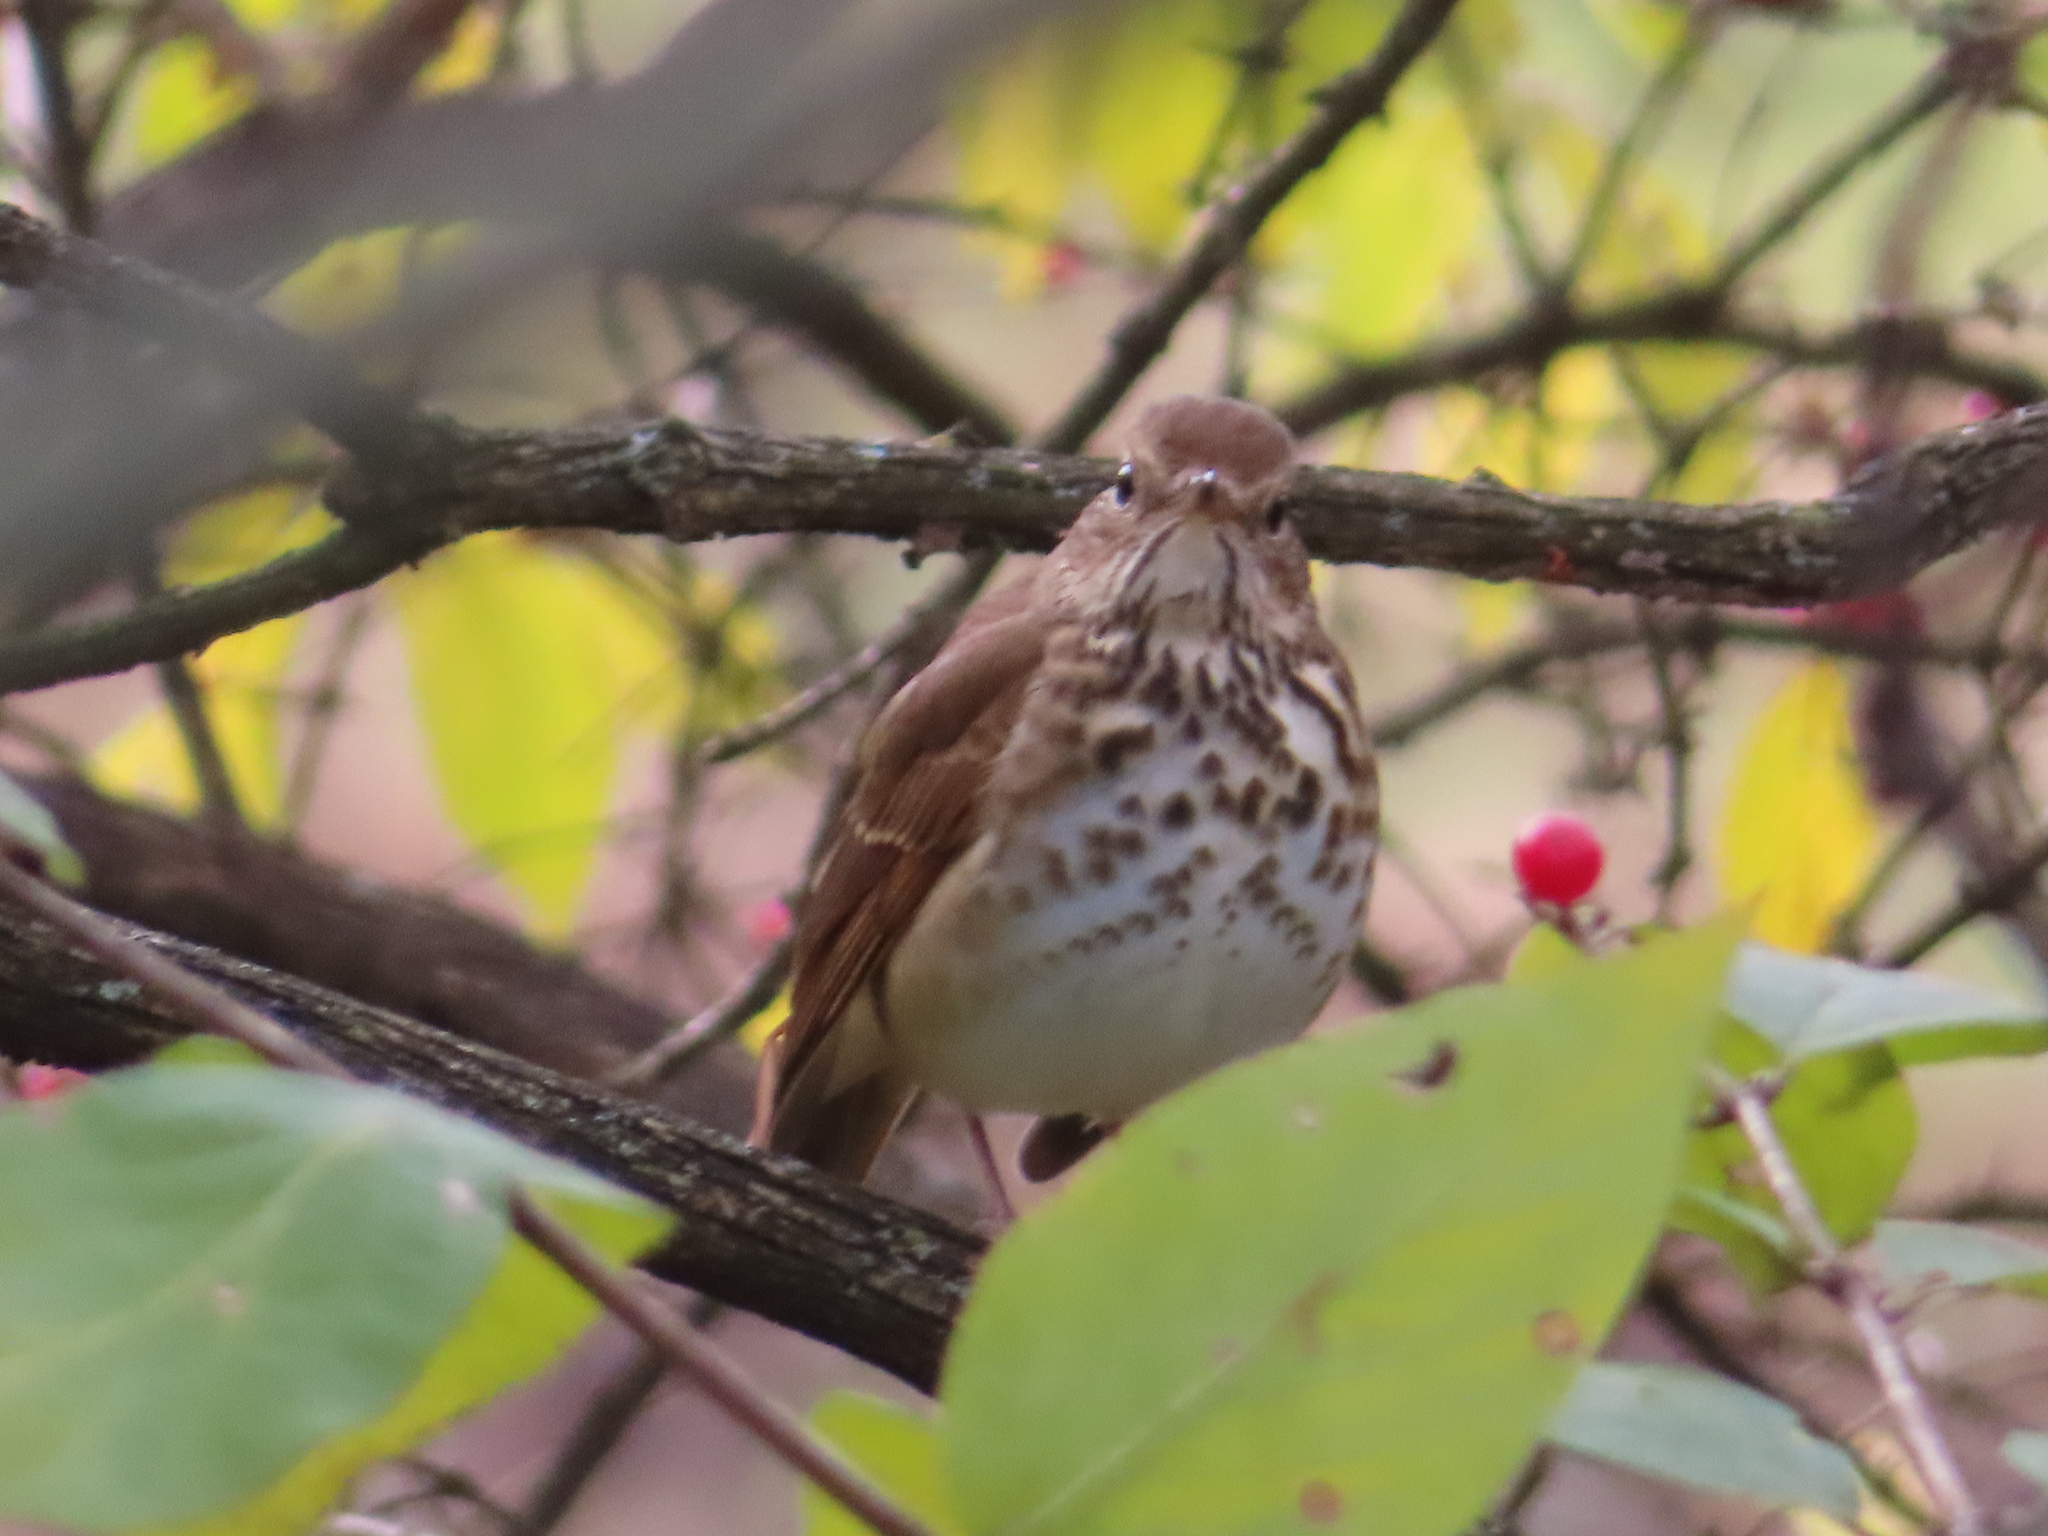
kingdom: Animalia
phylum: Chordata
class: Aves
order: Passeriformes
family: Turdidae
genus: Catharus
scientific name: Catharus guttatus
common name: Hermit thrush
